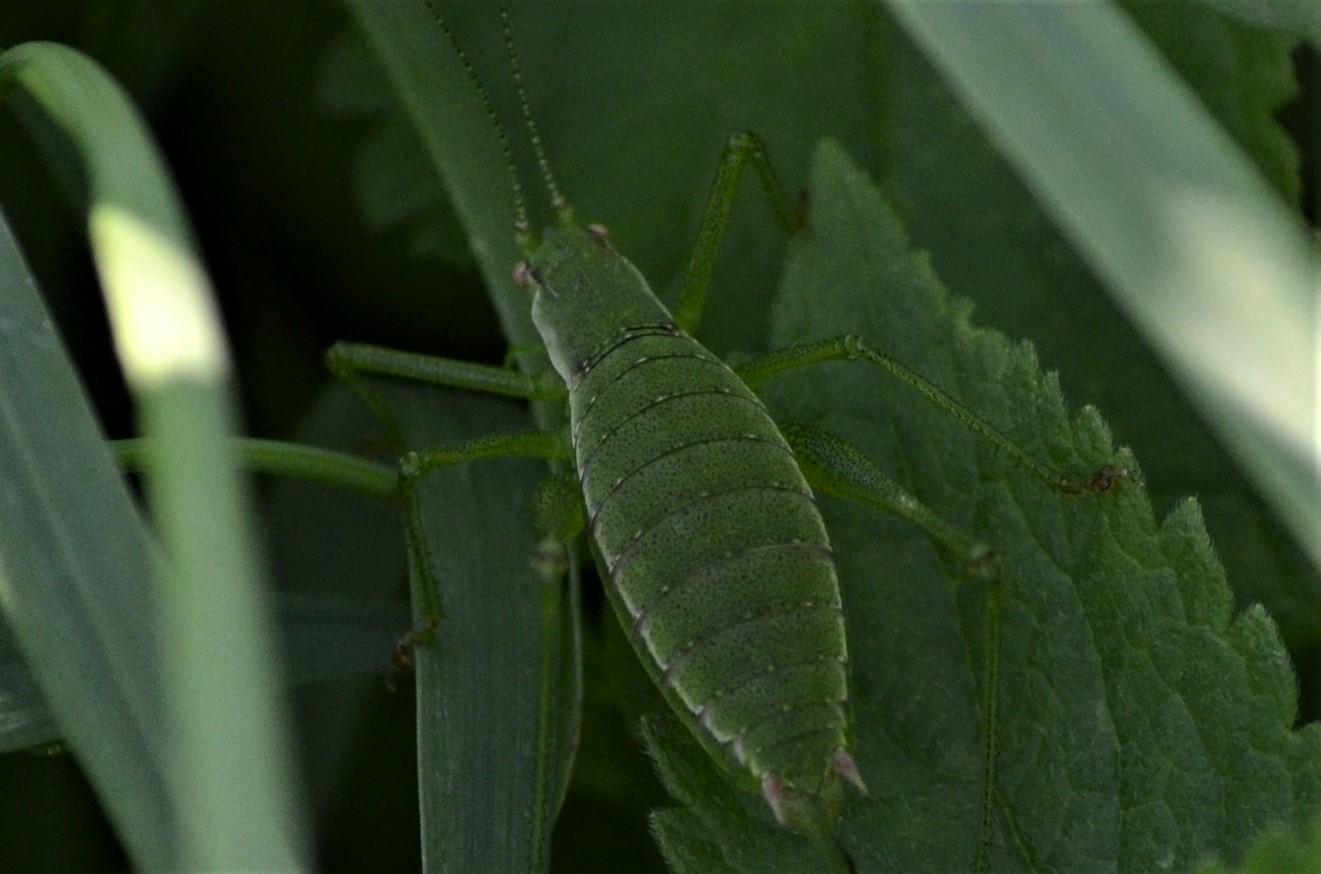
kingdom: Animalia
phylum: Arthropoda
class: Insecta
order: Orthoptera
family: Tettigoniidae
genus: Leptophyes
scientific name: Leptophyes boscii
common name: Balkan speckled bush-cricket
